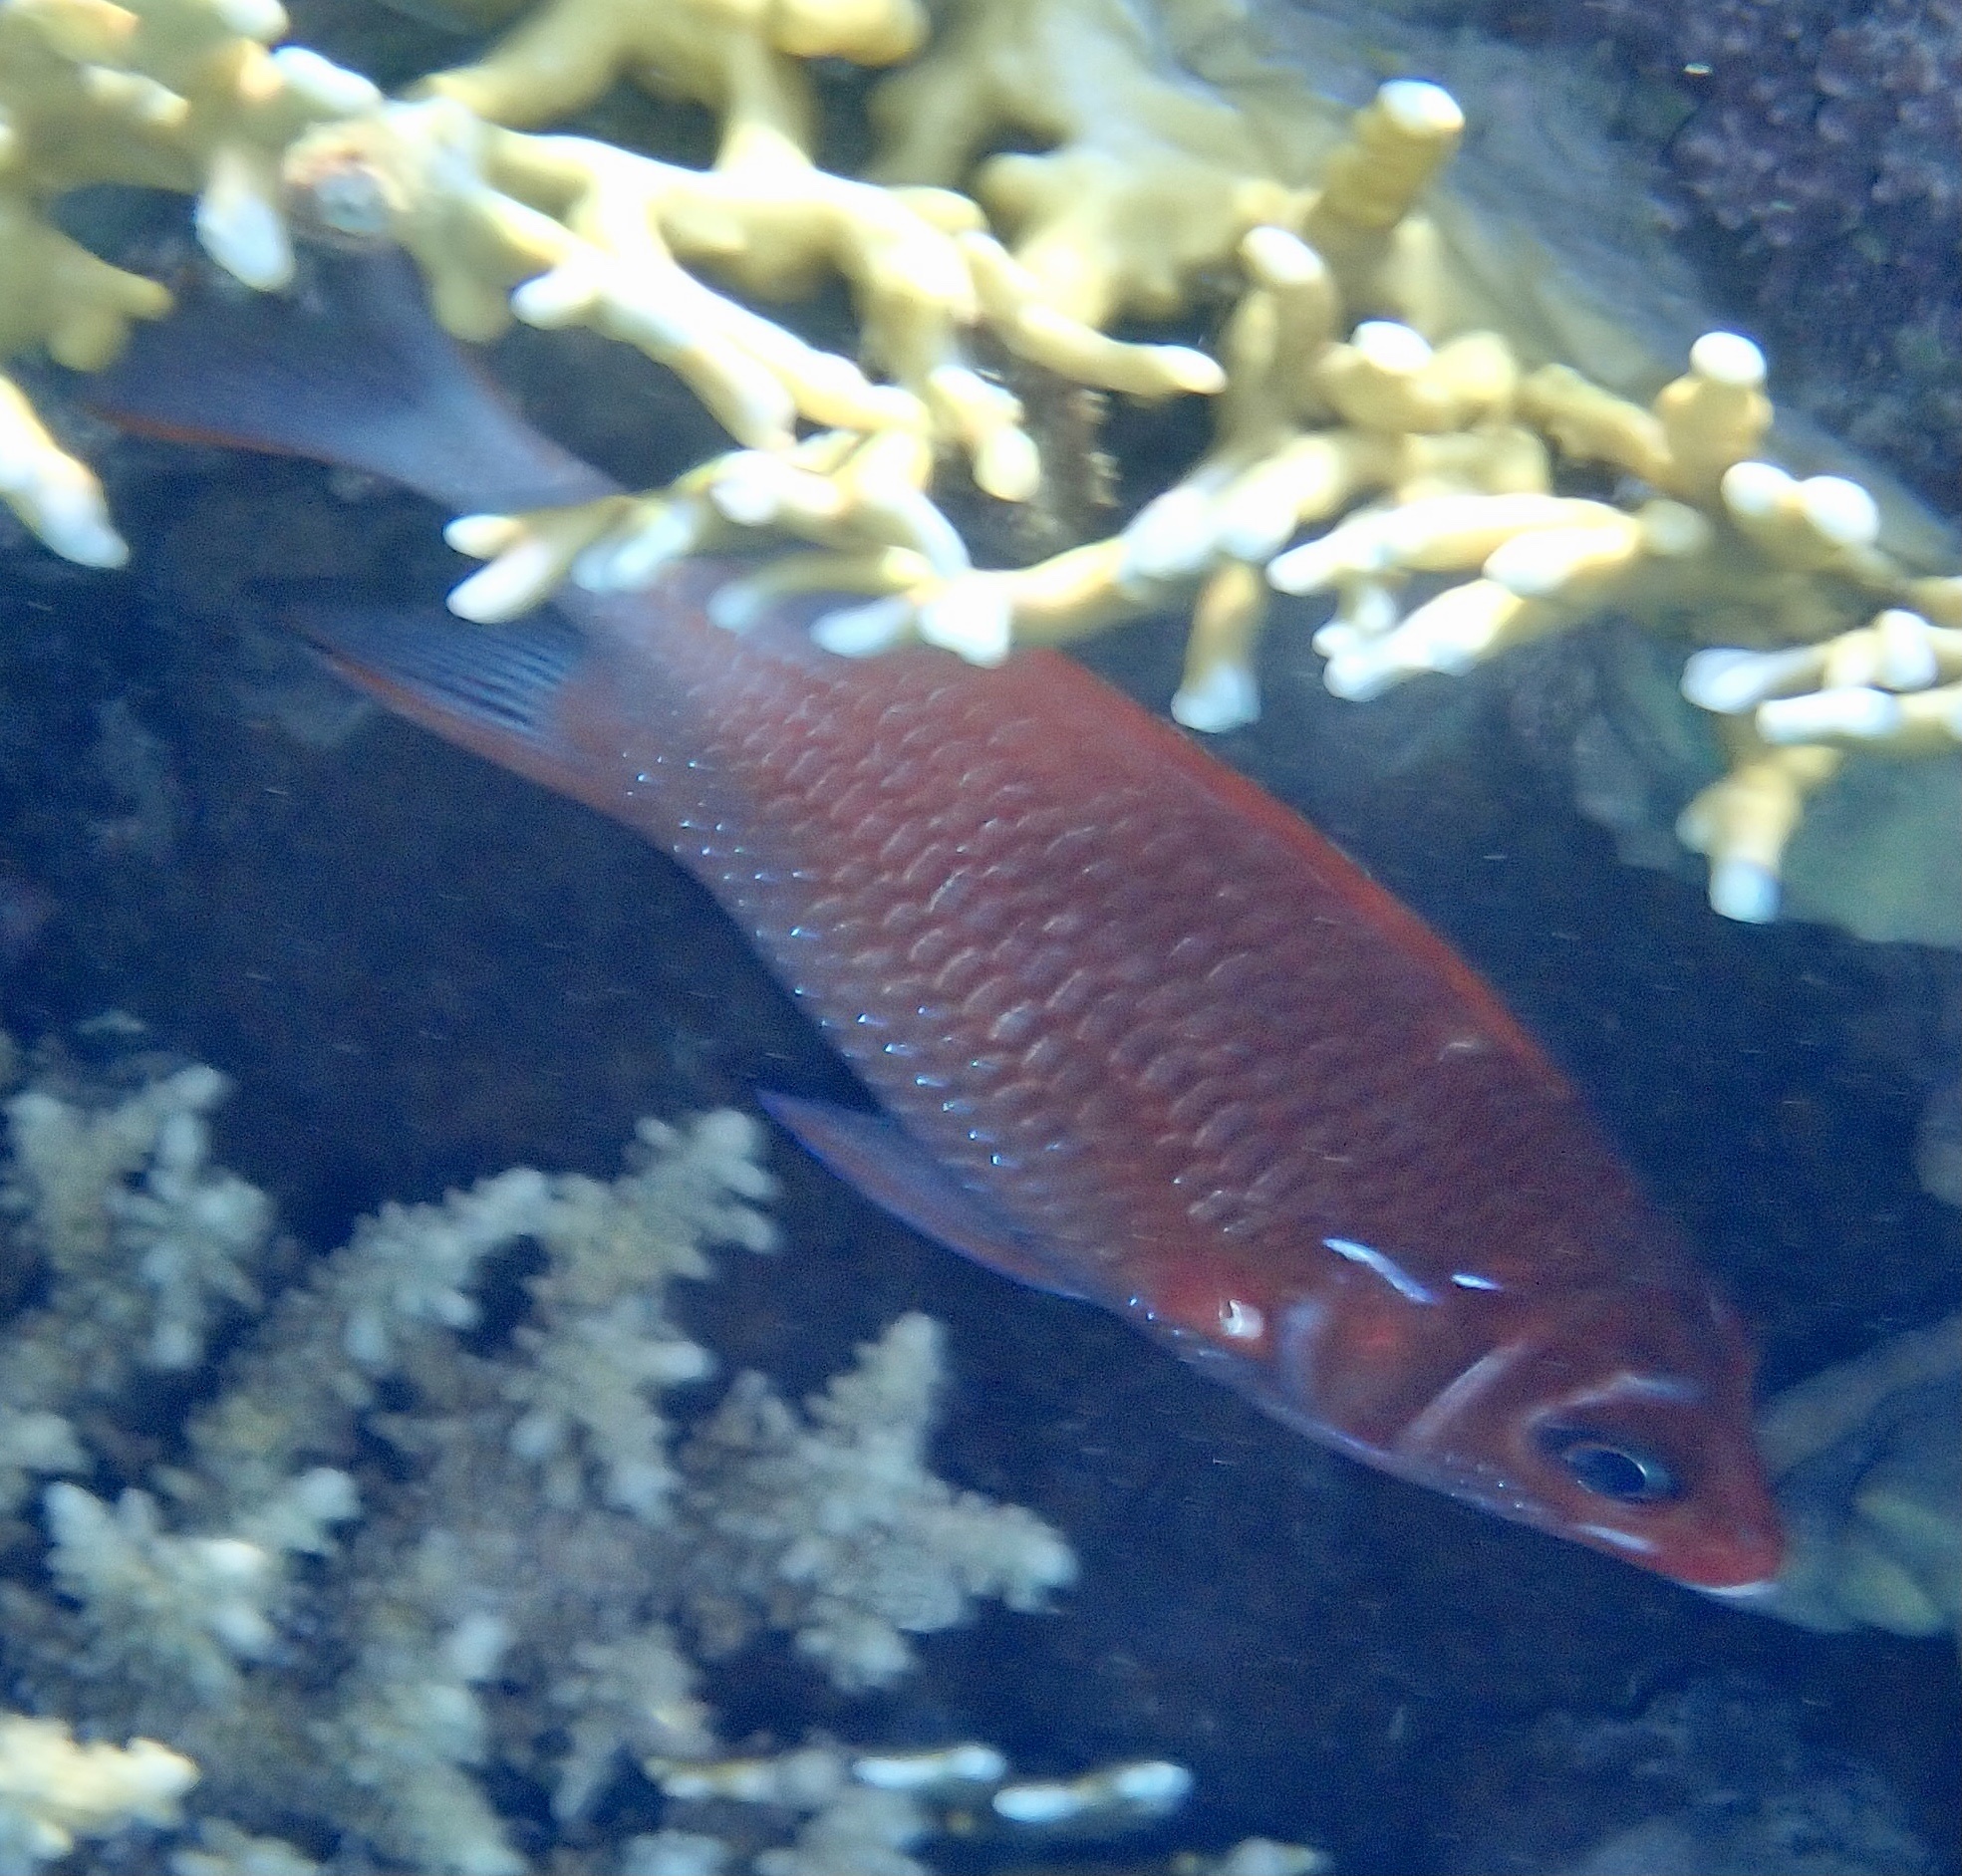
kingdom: Animalia
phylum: Chordata
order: Beryciformes
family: Holocentridae
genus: Sargocentron
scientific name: Sargocentron caudimaculatum
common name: Fanfin soldier
